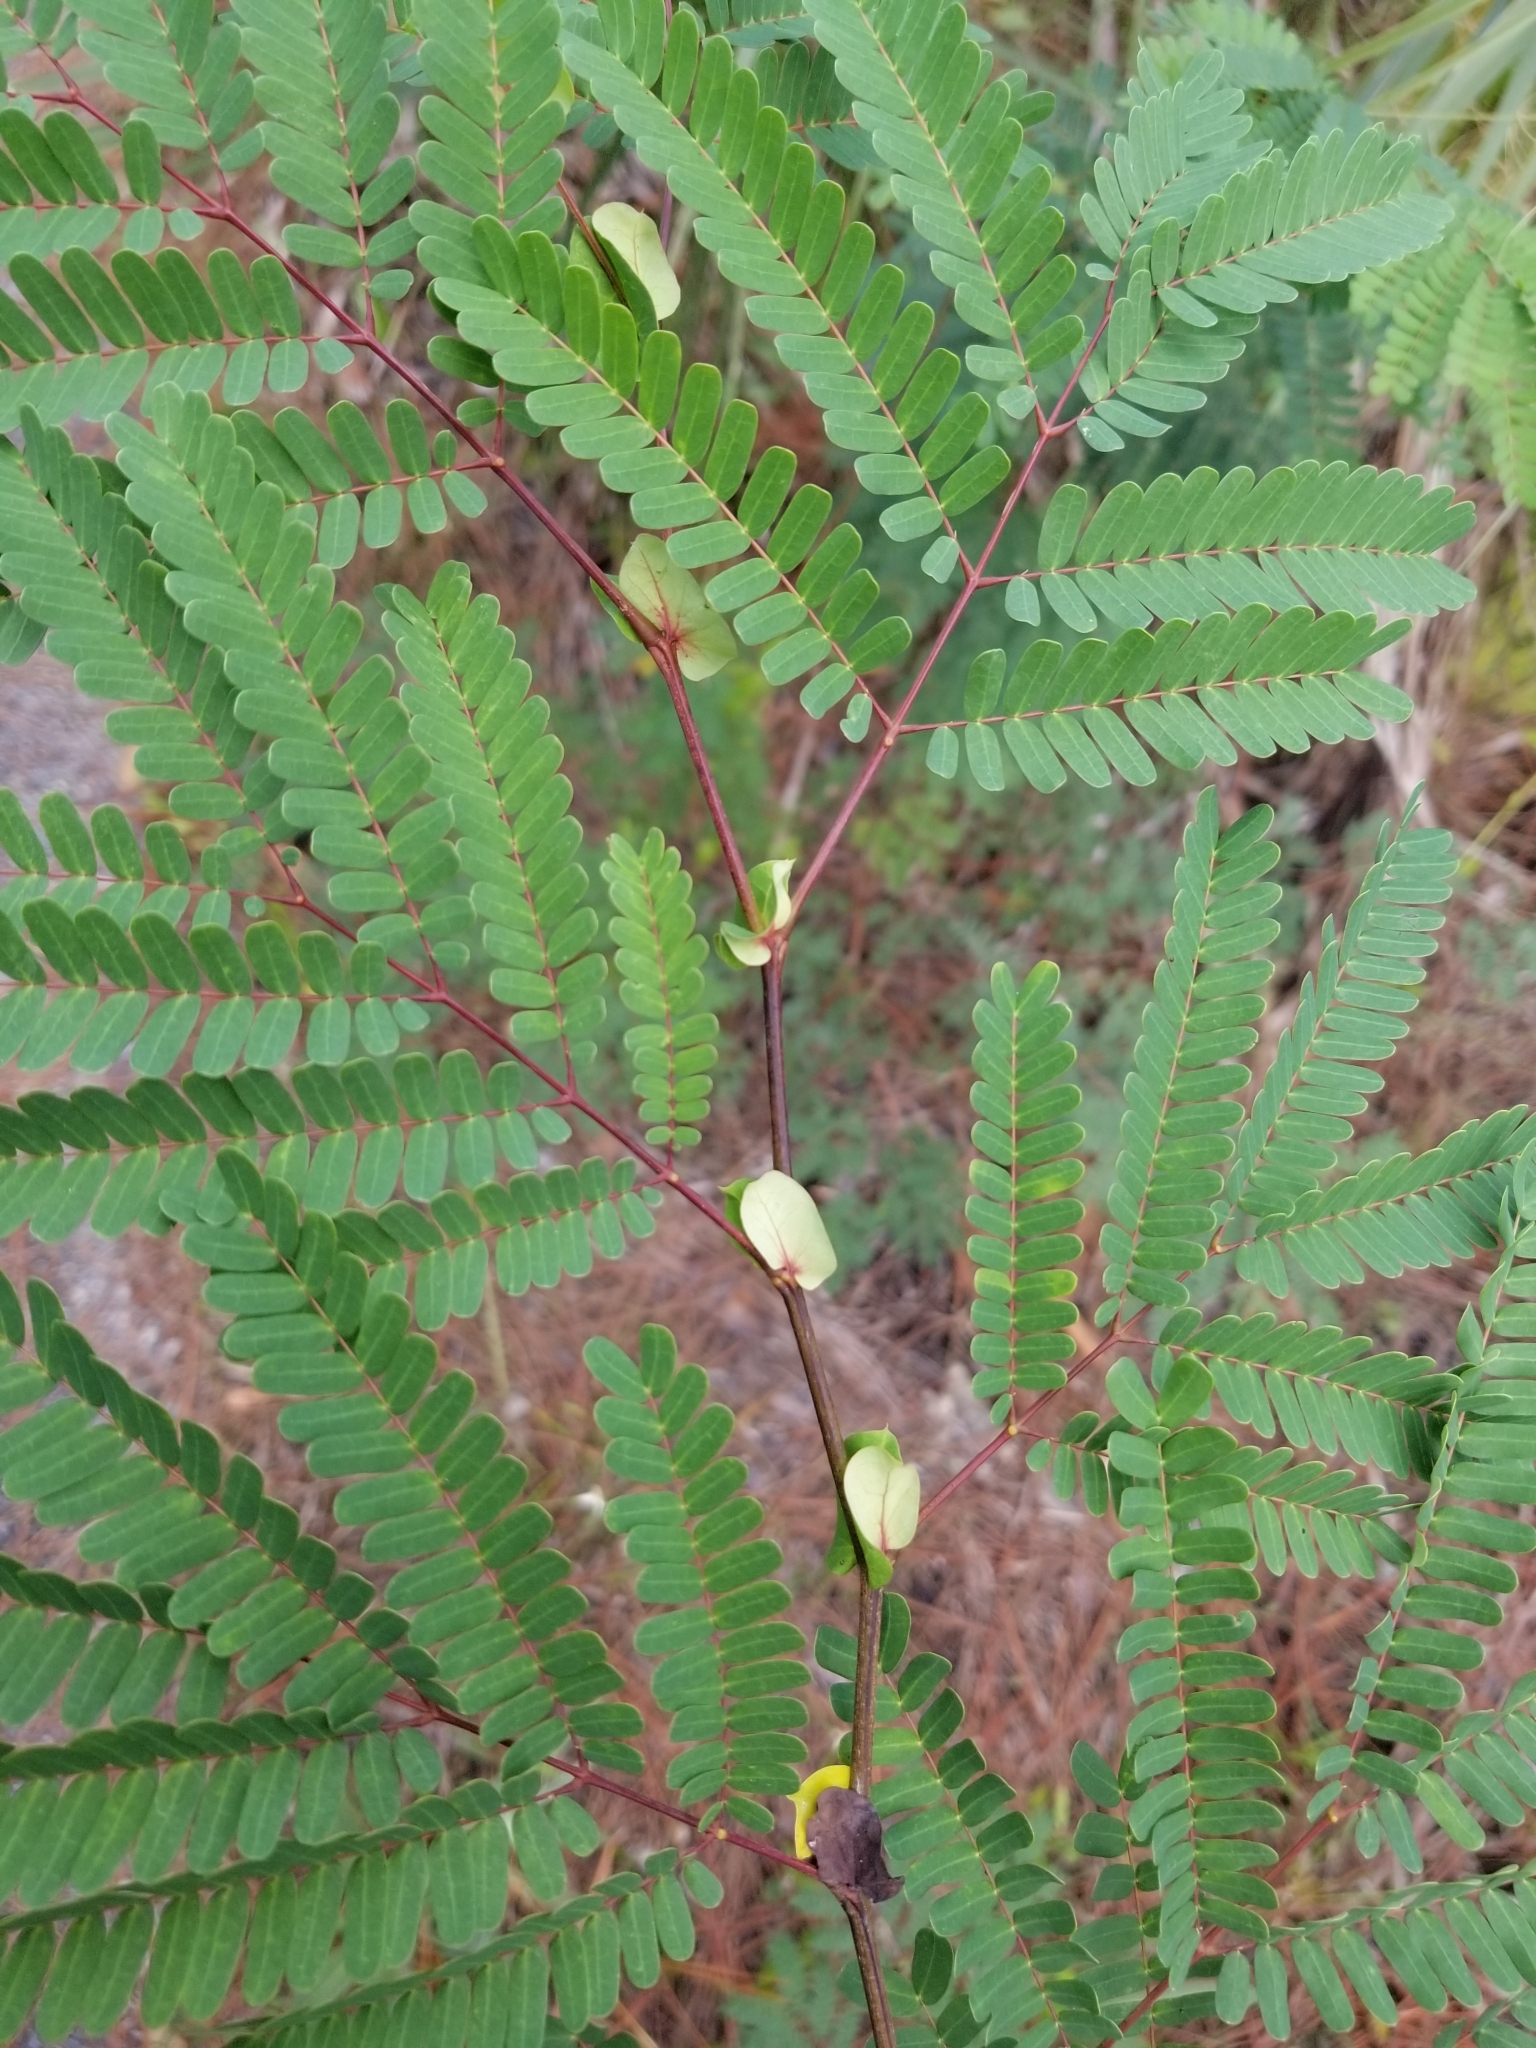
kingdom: Plantae
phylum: Tracheophyta
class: Magnoliopsida
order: Fabales
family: Fabaceae
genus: Lysiloma
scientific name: Lysiloma latisiliquum
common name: Wild tamarind
